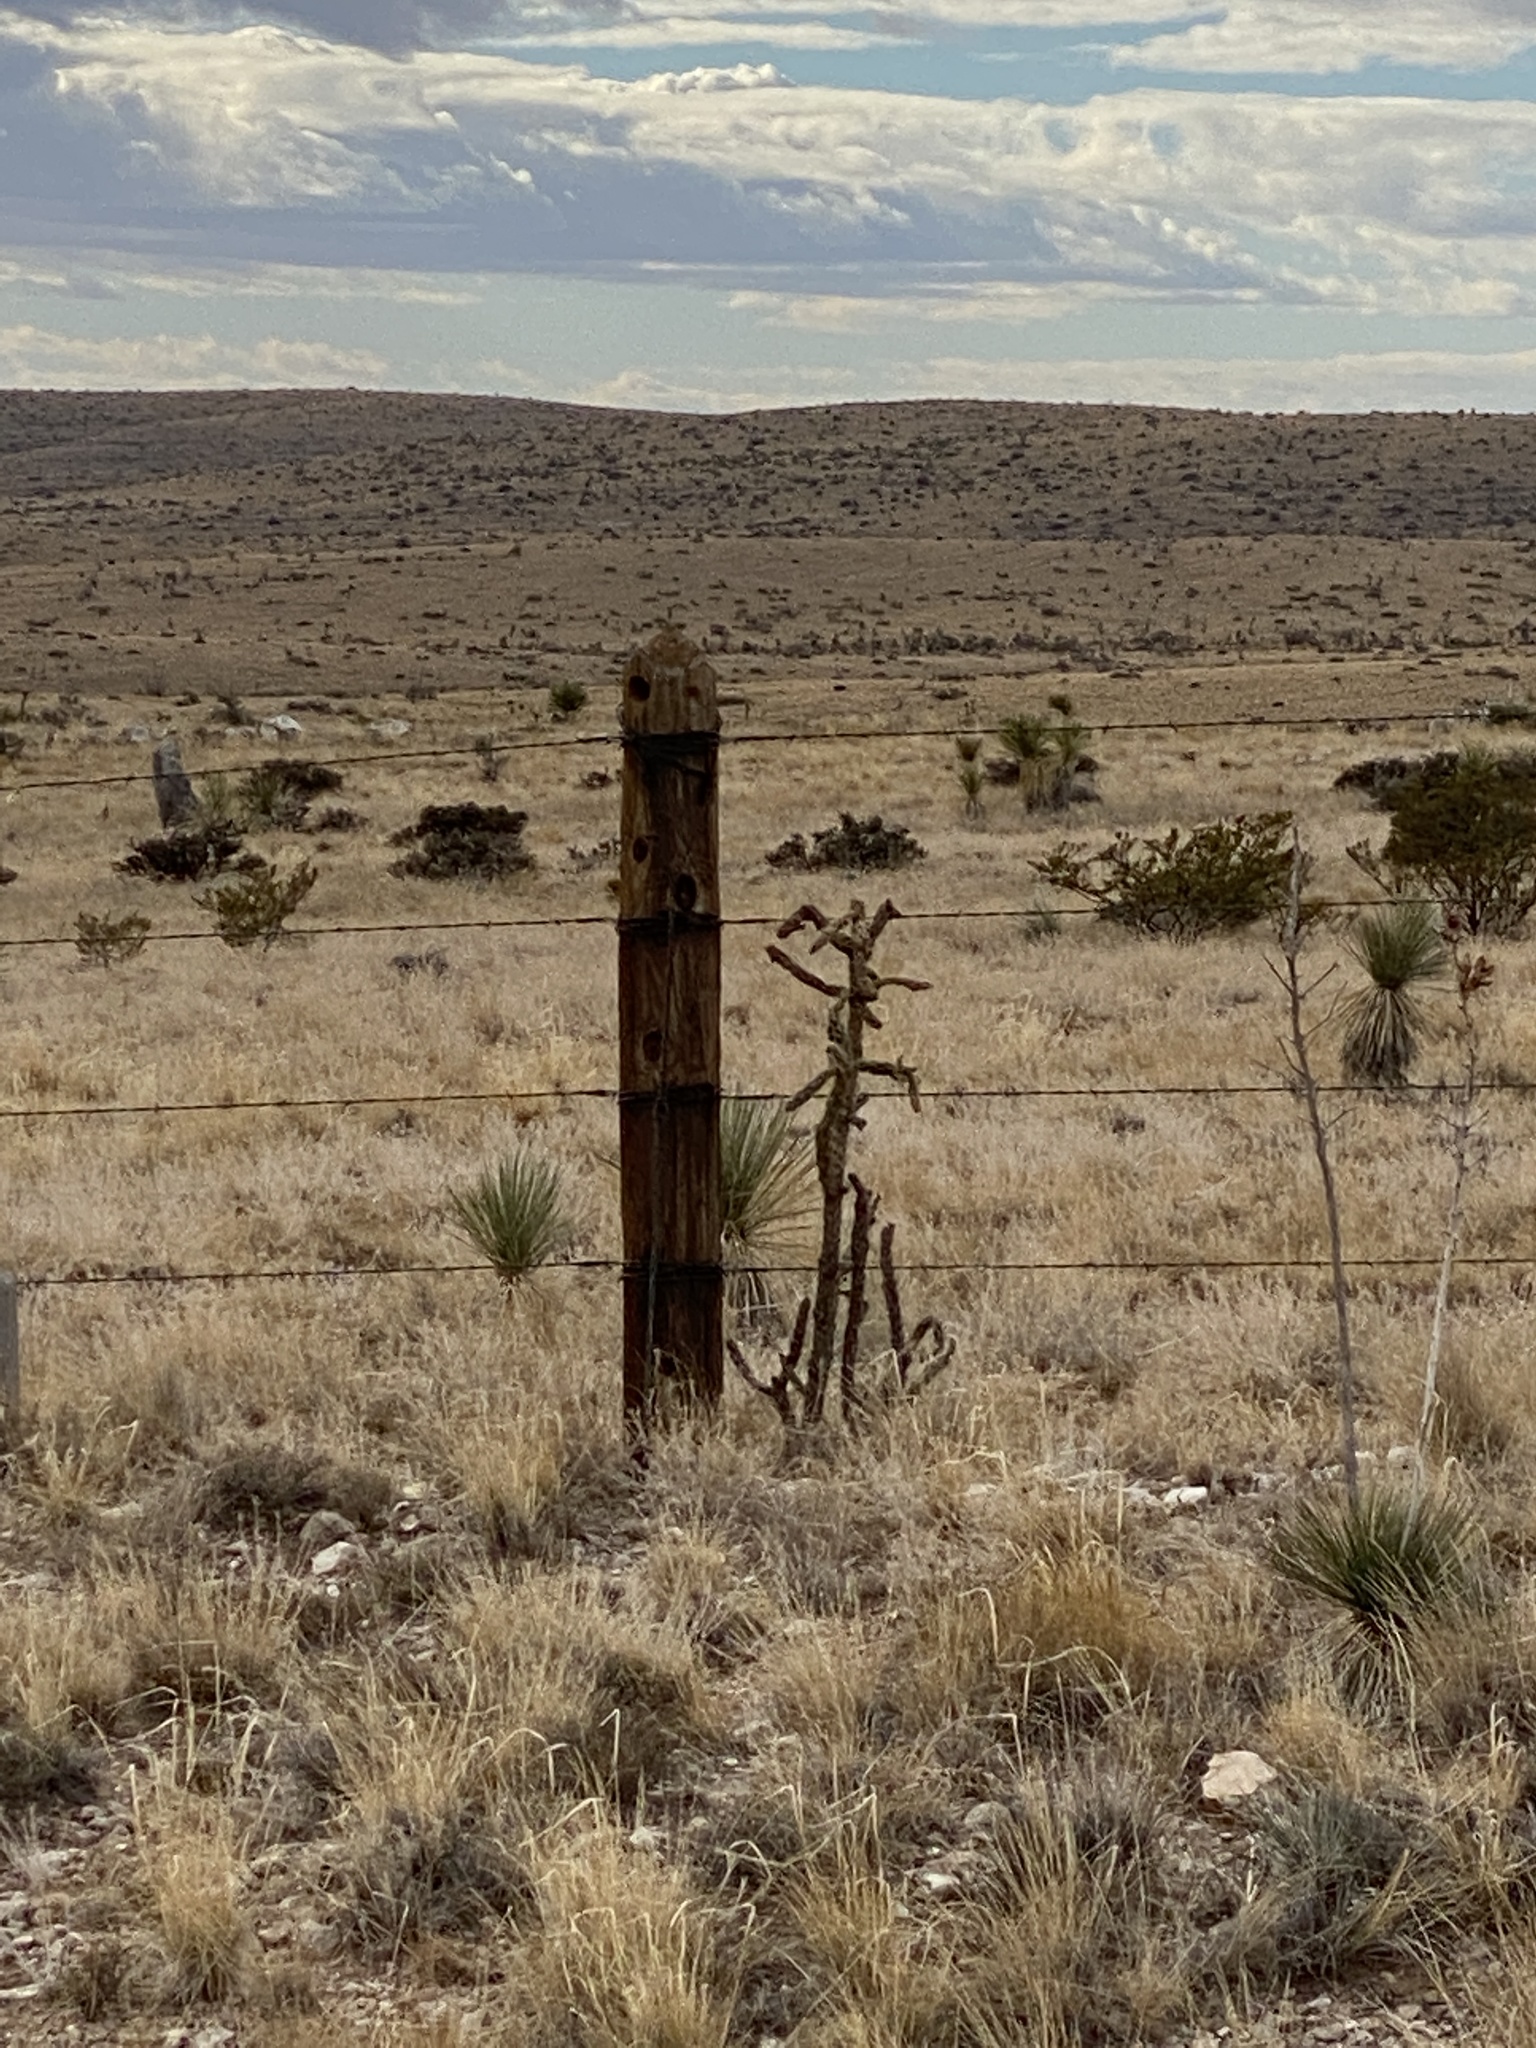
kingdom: Plantae
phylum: Tracheophyta
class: Magnoliopsida
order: Caryophyllales
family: Cactaceae
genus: Cylindropuntia
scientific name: Cylindropuntia imbricata
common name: Candelabrum cactus
